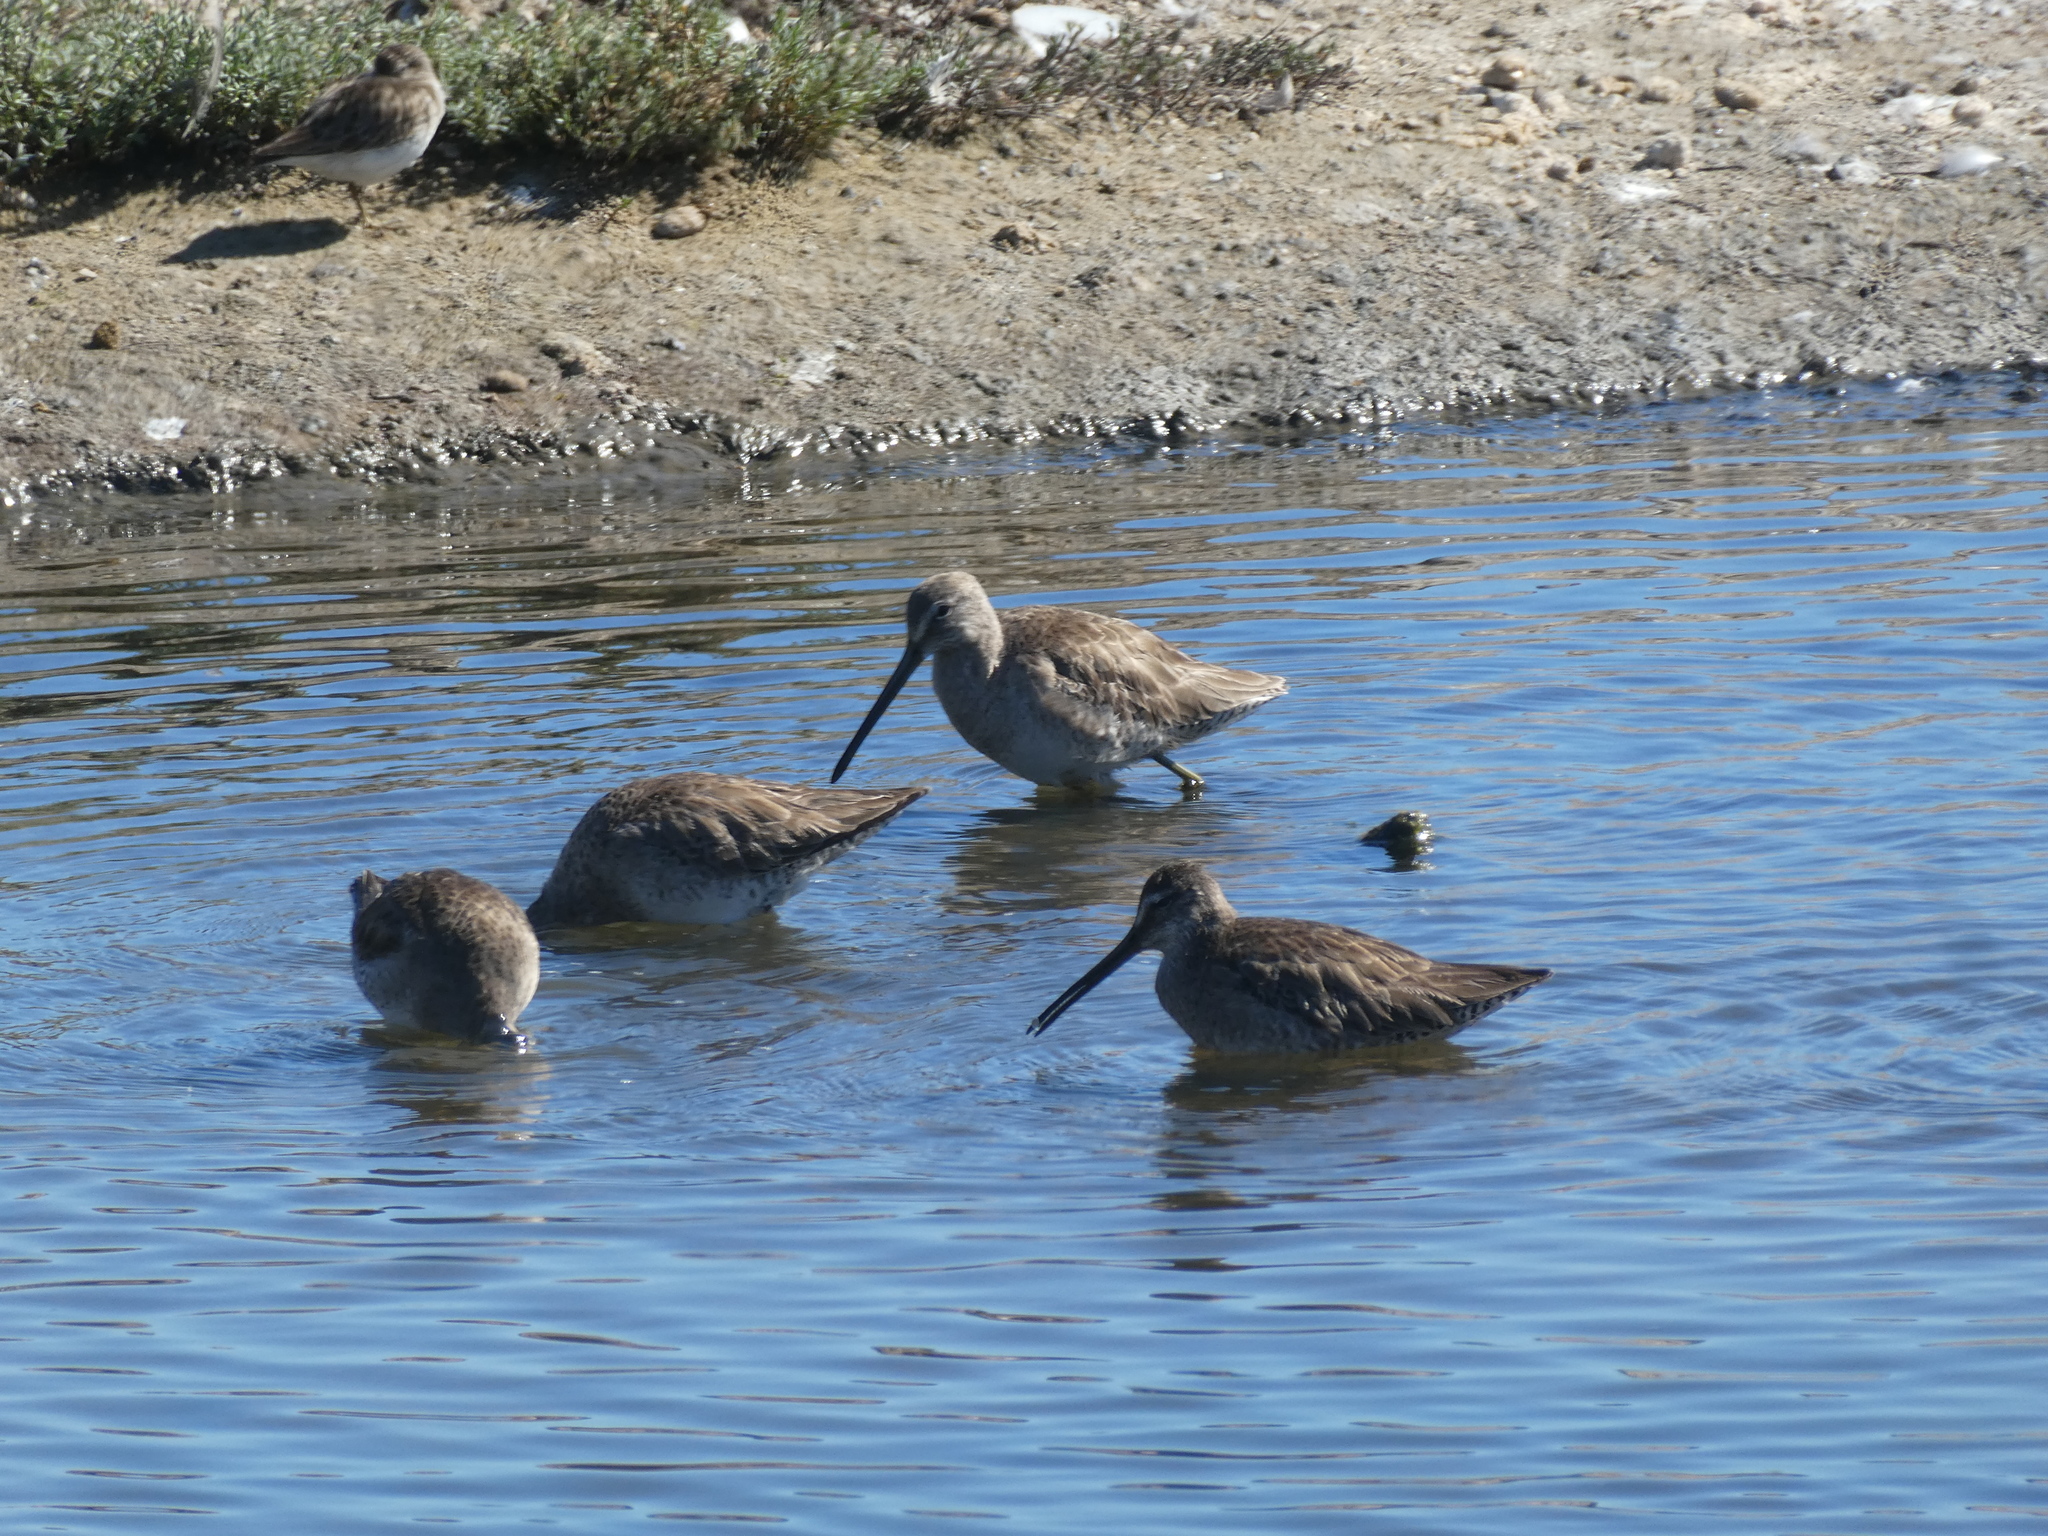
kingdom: Animalia
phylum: Chordata
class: Aves
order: Charadriiformes
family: Scolopacidae
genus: Limnodromus
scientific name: Limnodromus scolopaceus
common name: Long-billed dowitcher
